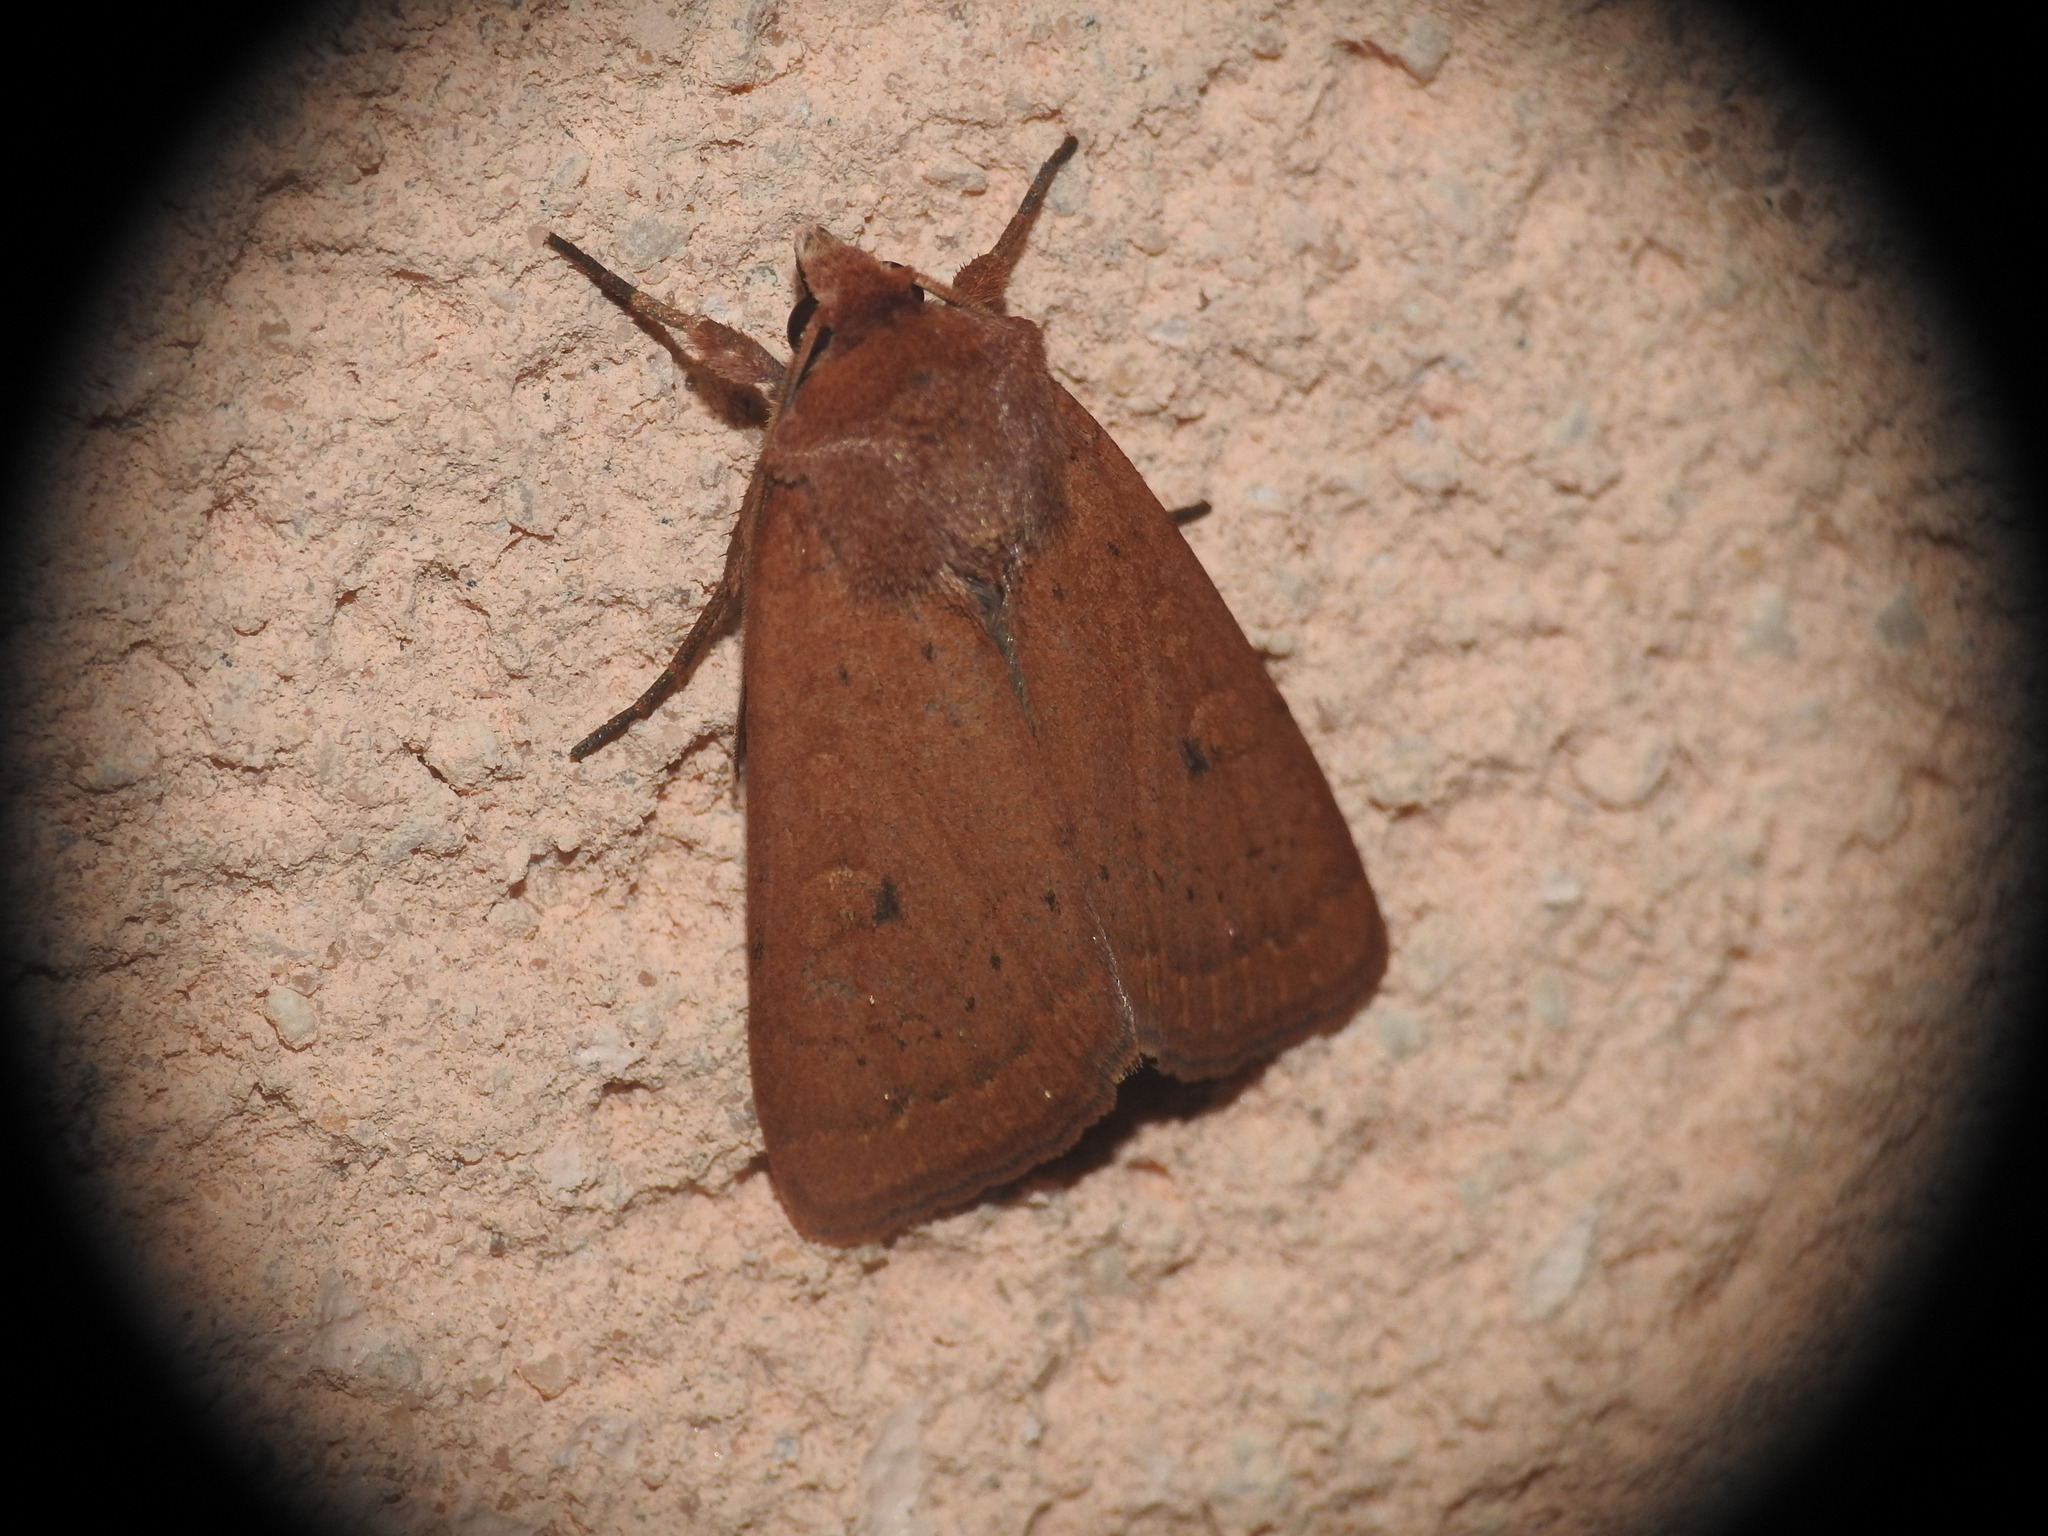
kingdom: Animalia
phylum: Arthropoda
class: Insecta
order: Lepidoptera
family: Noctuidae
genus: Xestia
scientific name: Xestia castanea
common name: Neglected rustic
